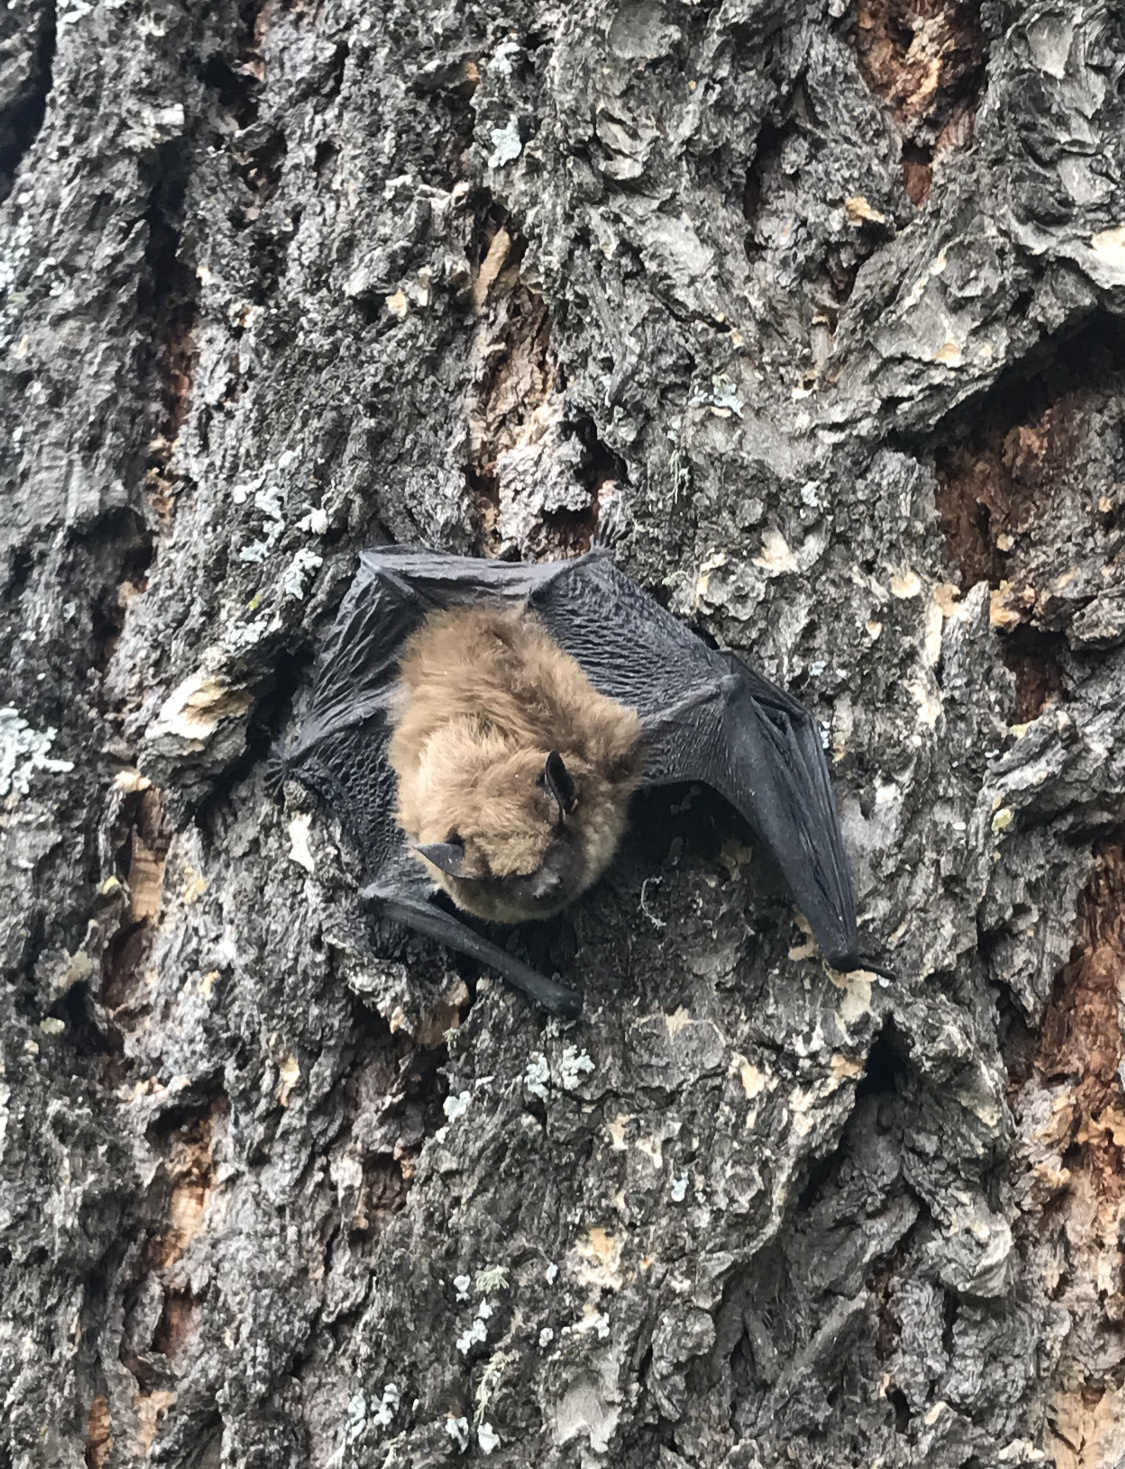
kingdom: Animalia
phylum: Chordata
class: Mammalia
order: Chiroptera
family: Vespertilionidae
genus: Eptesicus
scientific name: Eptesicus fuscus
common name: Big brown bat
